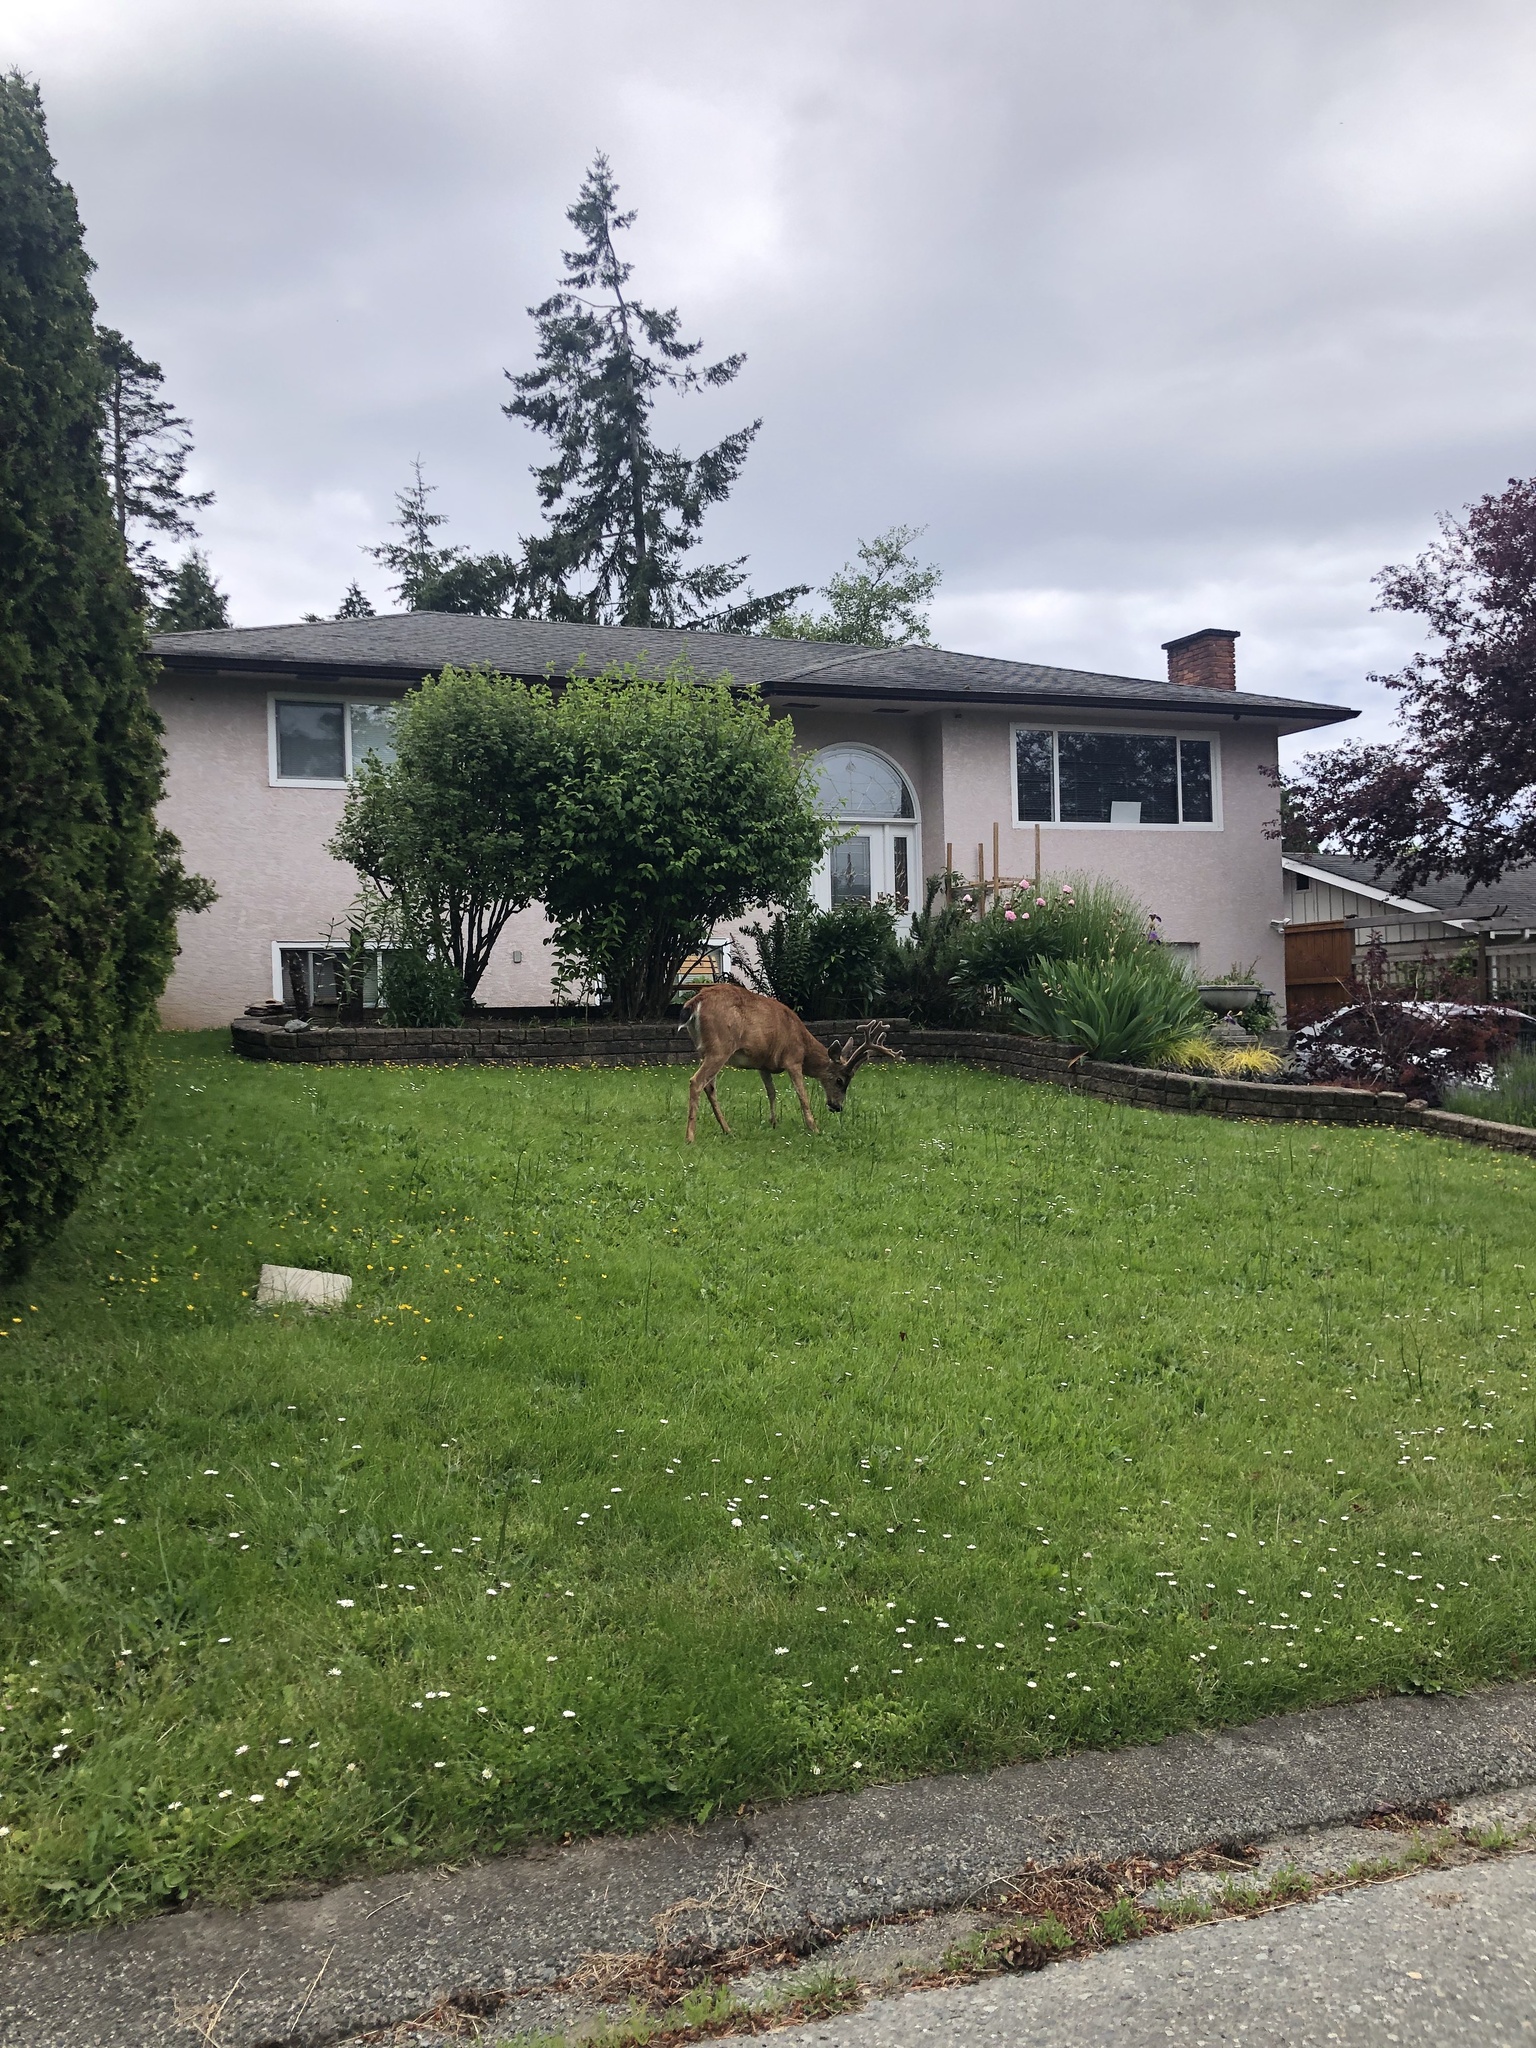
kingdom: Animalia
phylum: Chordata
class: Mammalia
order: Artiodactyla
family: Cervidae
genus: Odocoileus
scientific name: Odocoileus hemionus
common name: Mule deer
